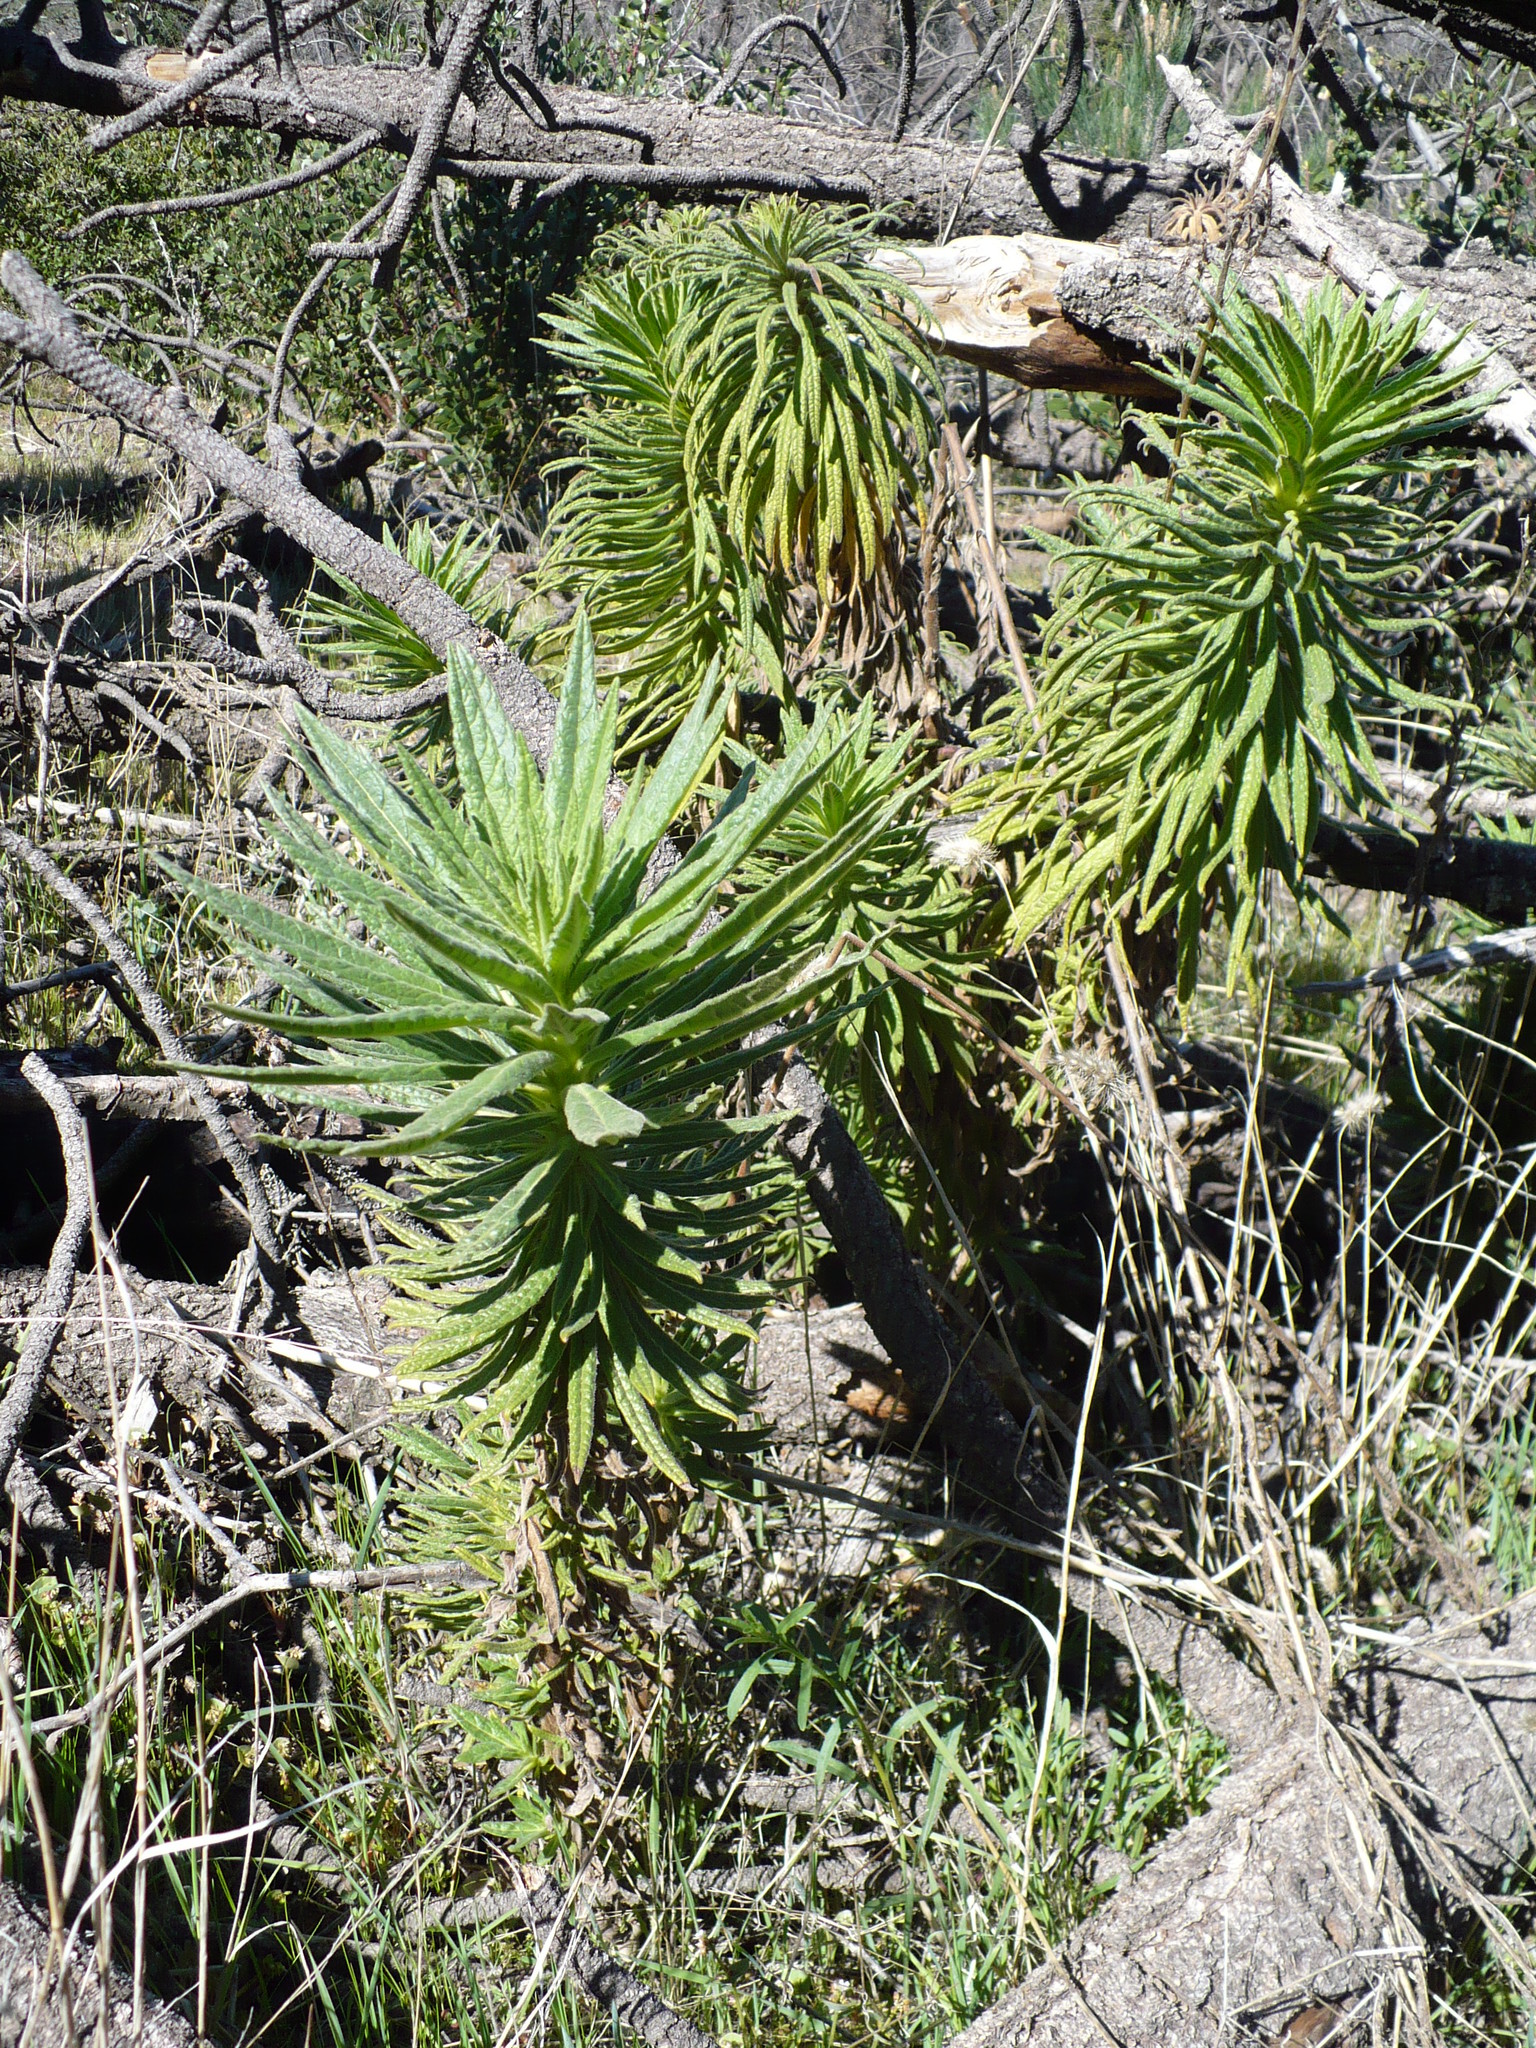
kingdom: Plantae
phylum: Tracheophyta
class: Magnoliopsida
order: Boraginales
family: Namaceae
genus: Turricula
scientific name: Turricula parryi
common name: Poodle-dog-bush
